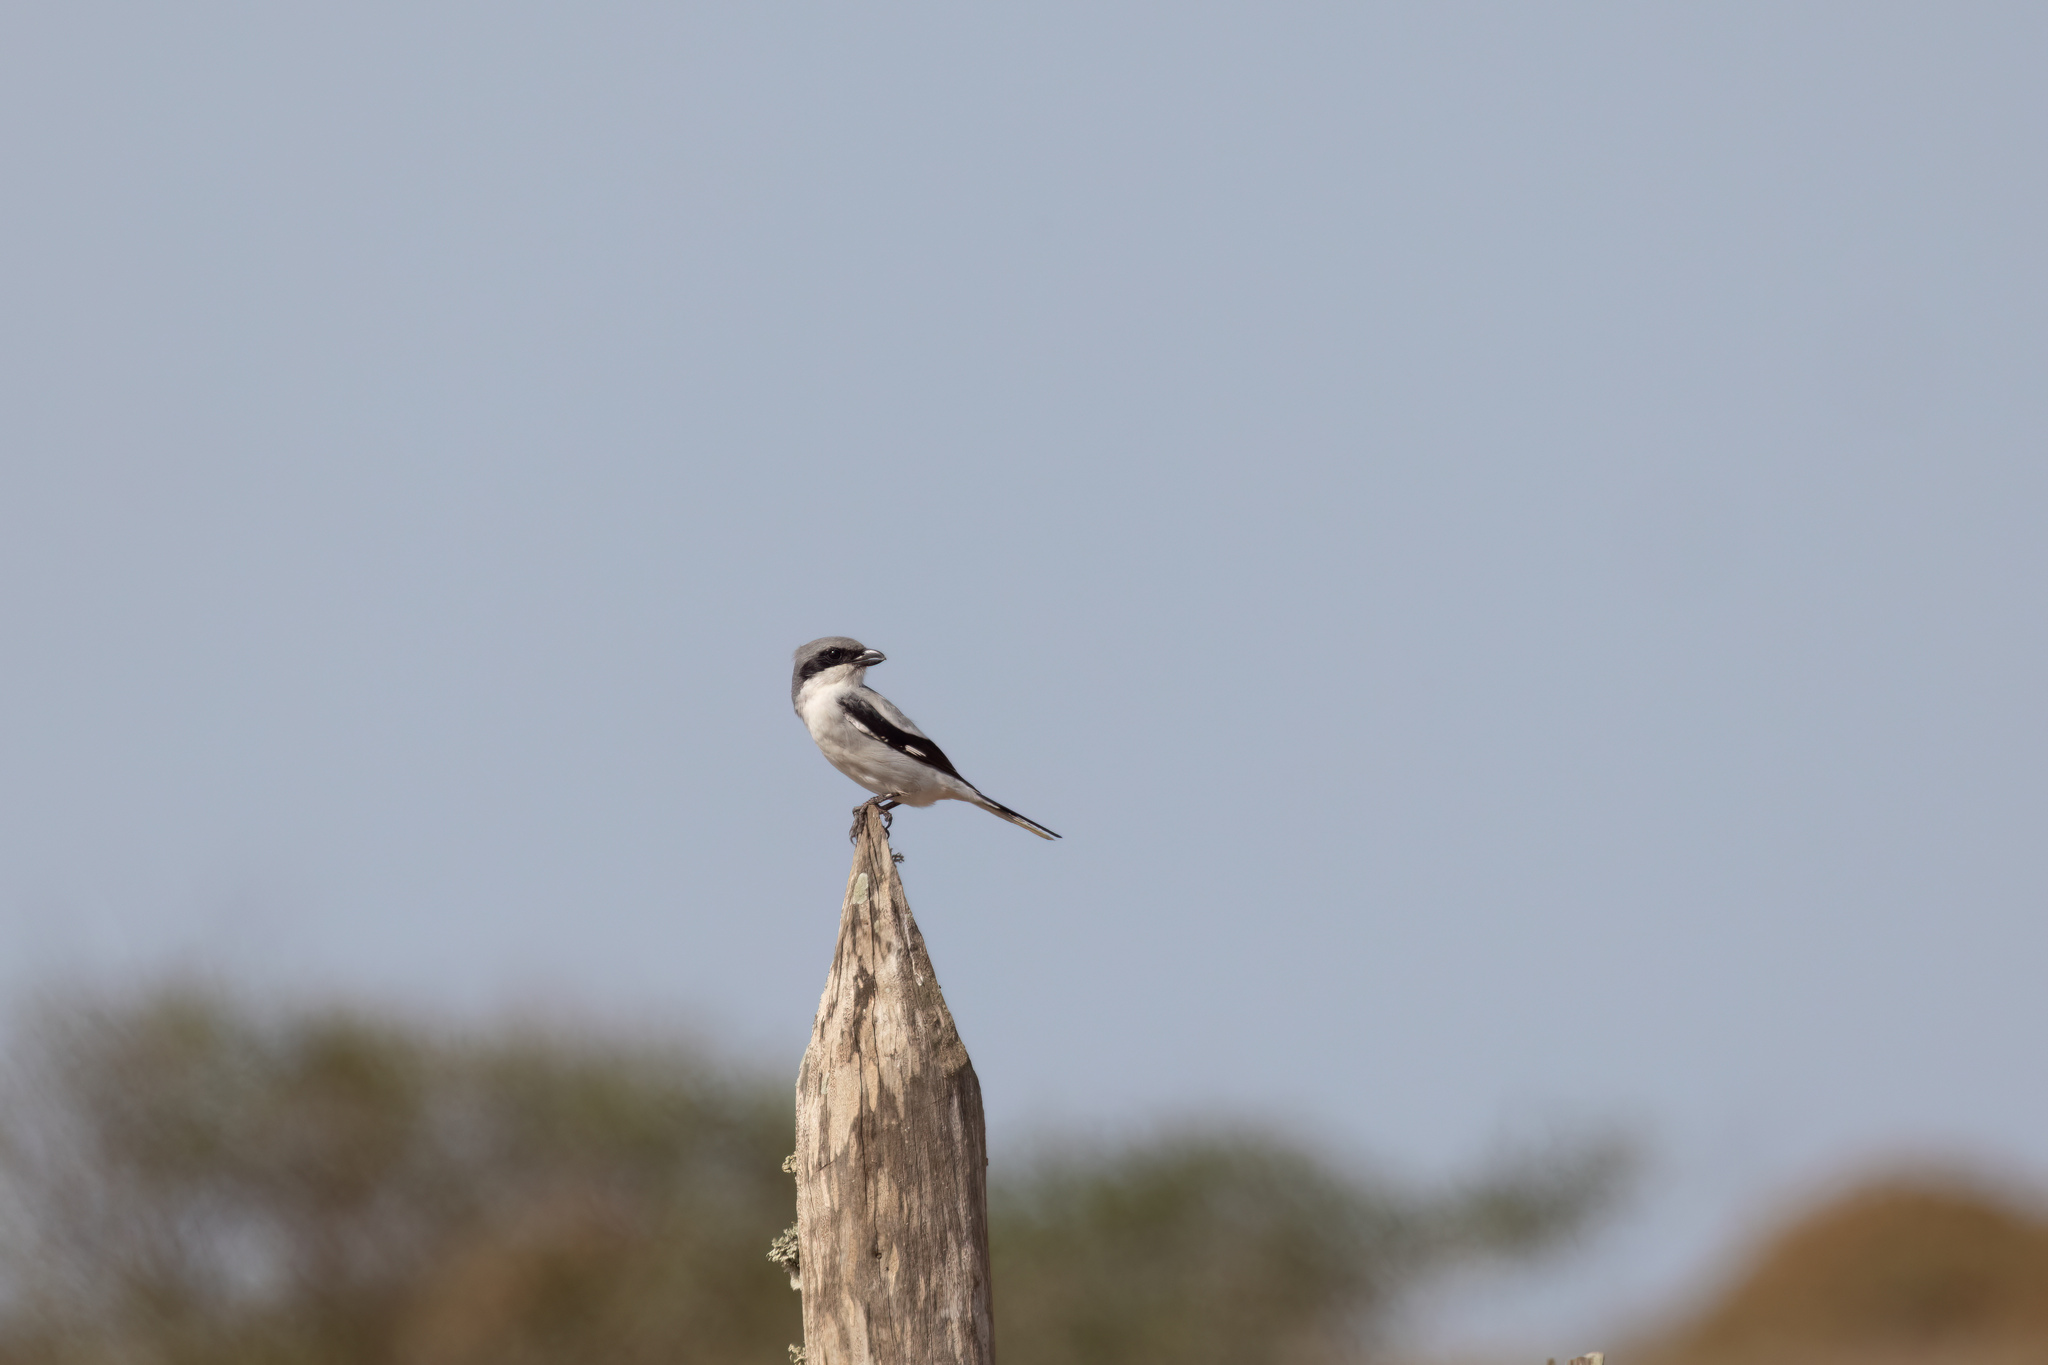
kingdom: Animalia
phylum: Chordata
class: Aves
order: Passeriformes
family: Laniidae
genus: Lanius
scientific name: Lanius excubitor
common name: Great grey shrike
